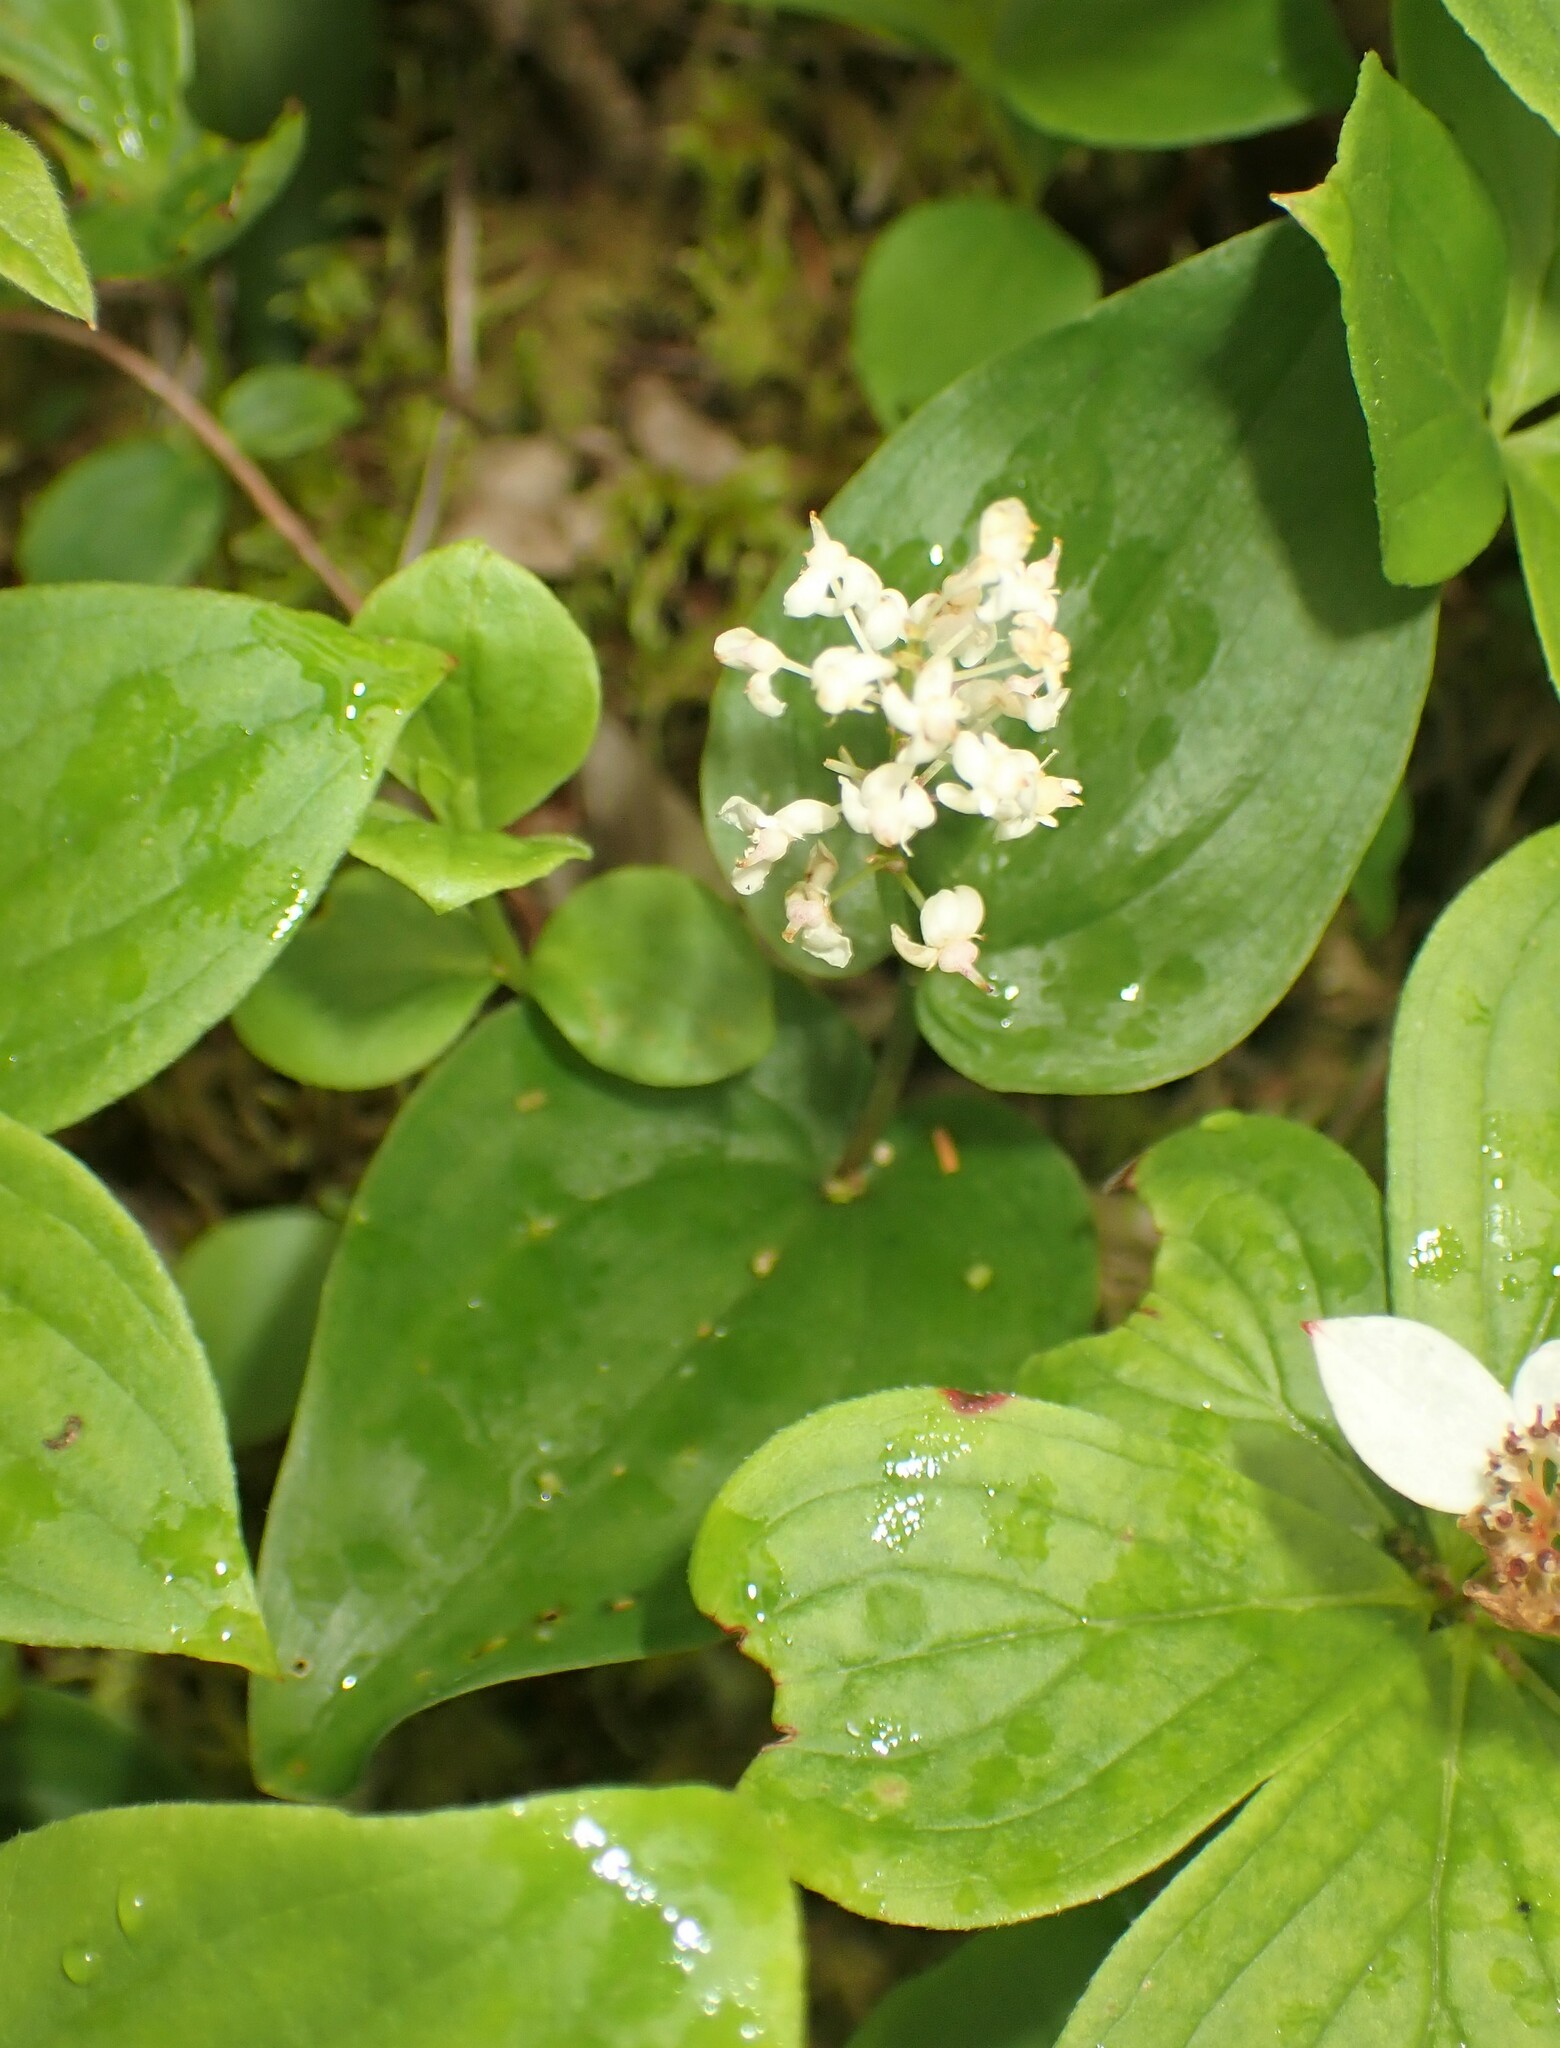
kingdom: Plantae
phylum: Tracheophyta
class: Liliopsida
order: Asparagales
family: Asparagaceae
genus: Maianthemum
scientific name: Maianthemum canadense
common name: False lily-of-the-valley
